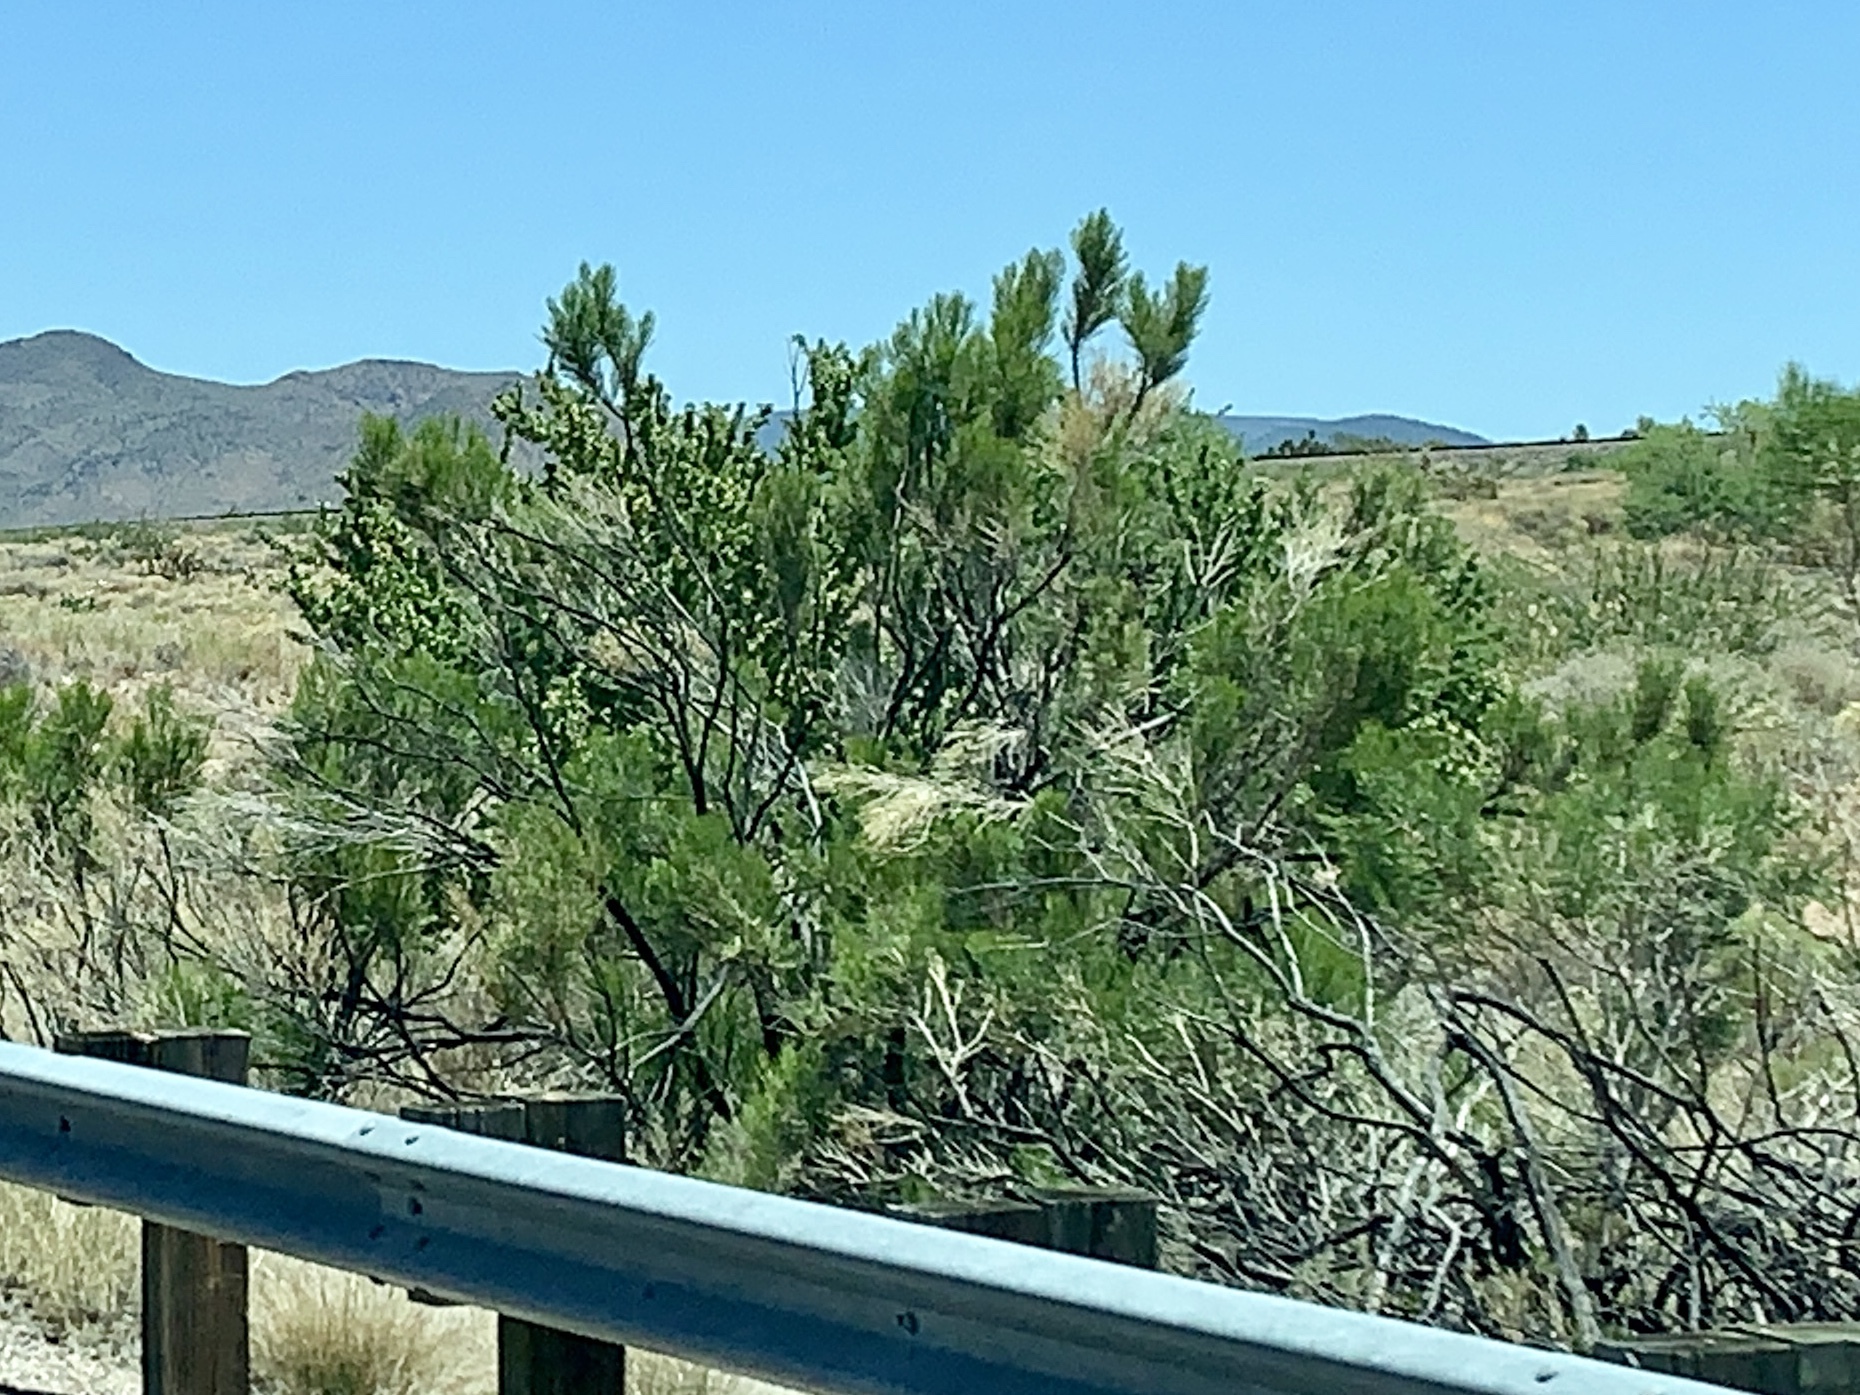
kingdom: Plantae
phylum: Tracheophyta
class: Magnoliopsida
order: Asterales
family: Asteraceae
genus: Baccharis
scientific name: Baccharis sarothroides
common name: Desert-broom
